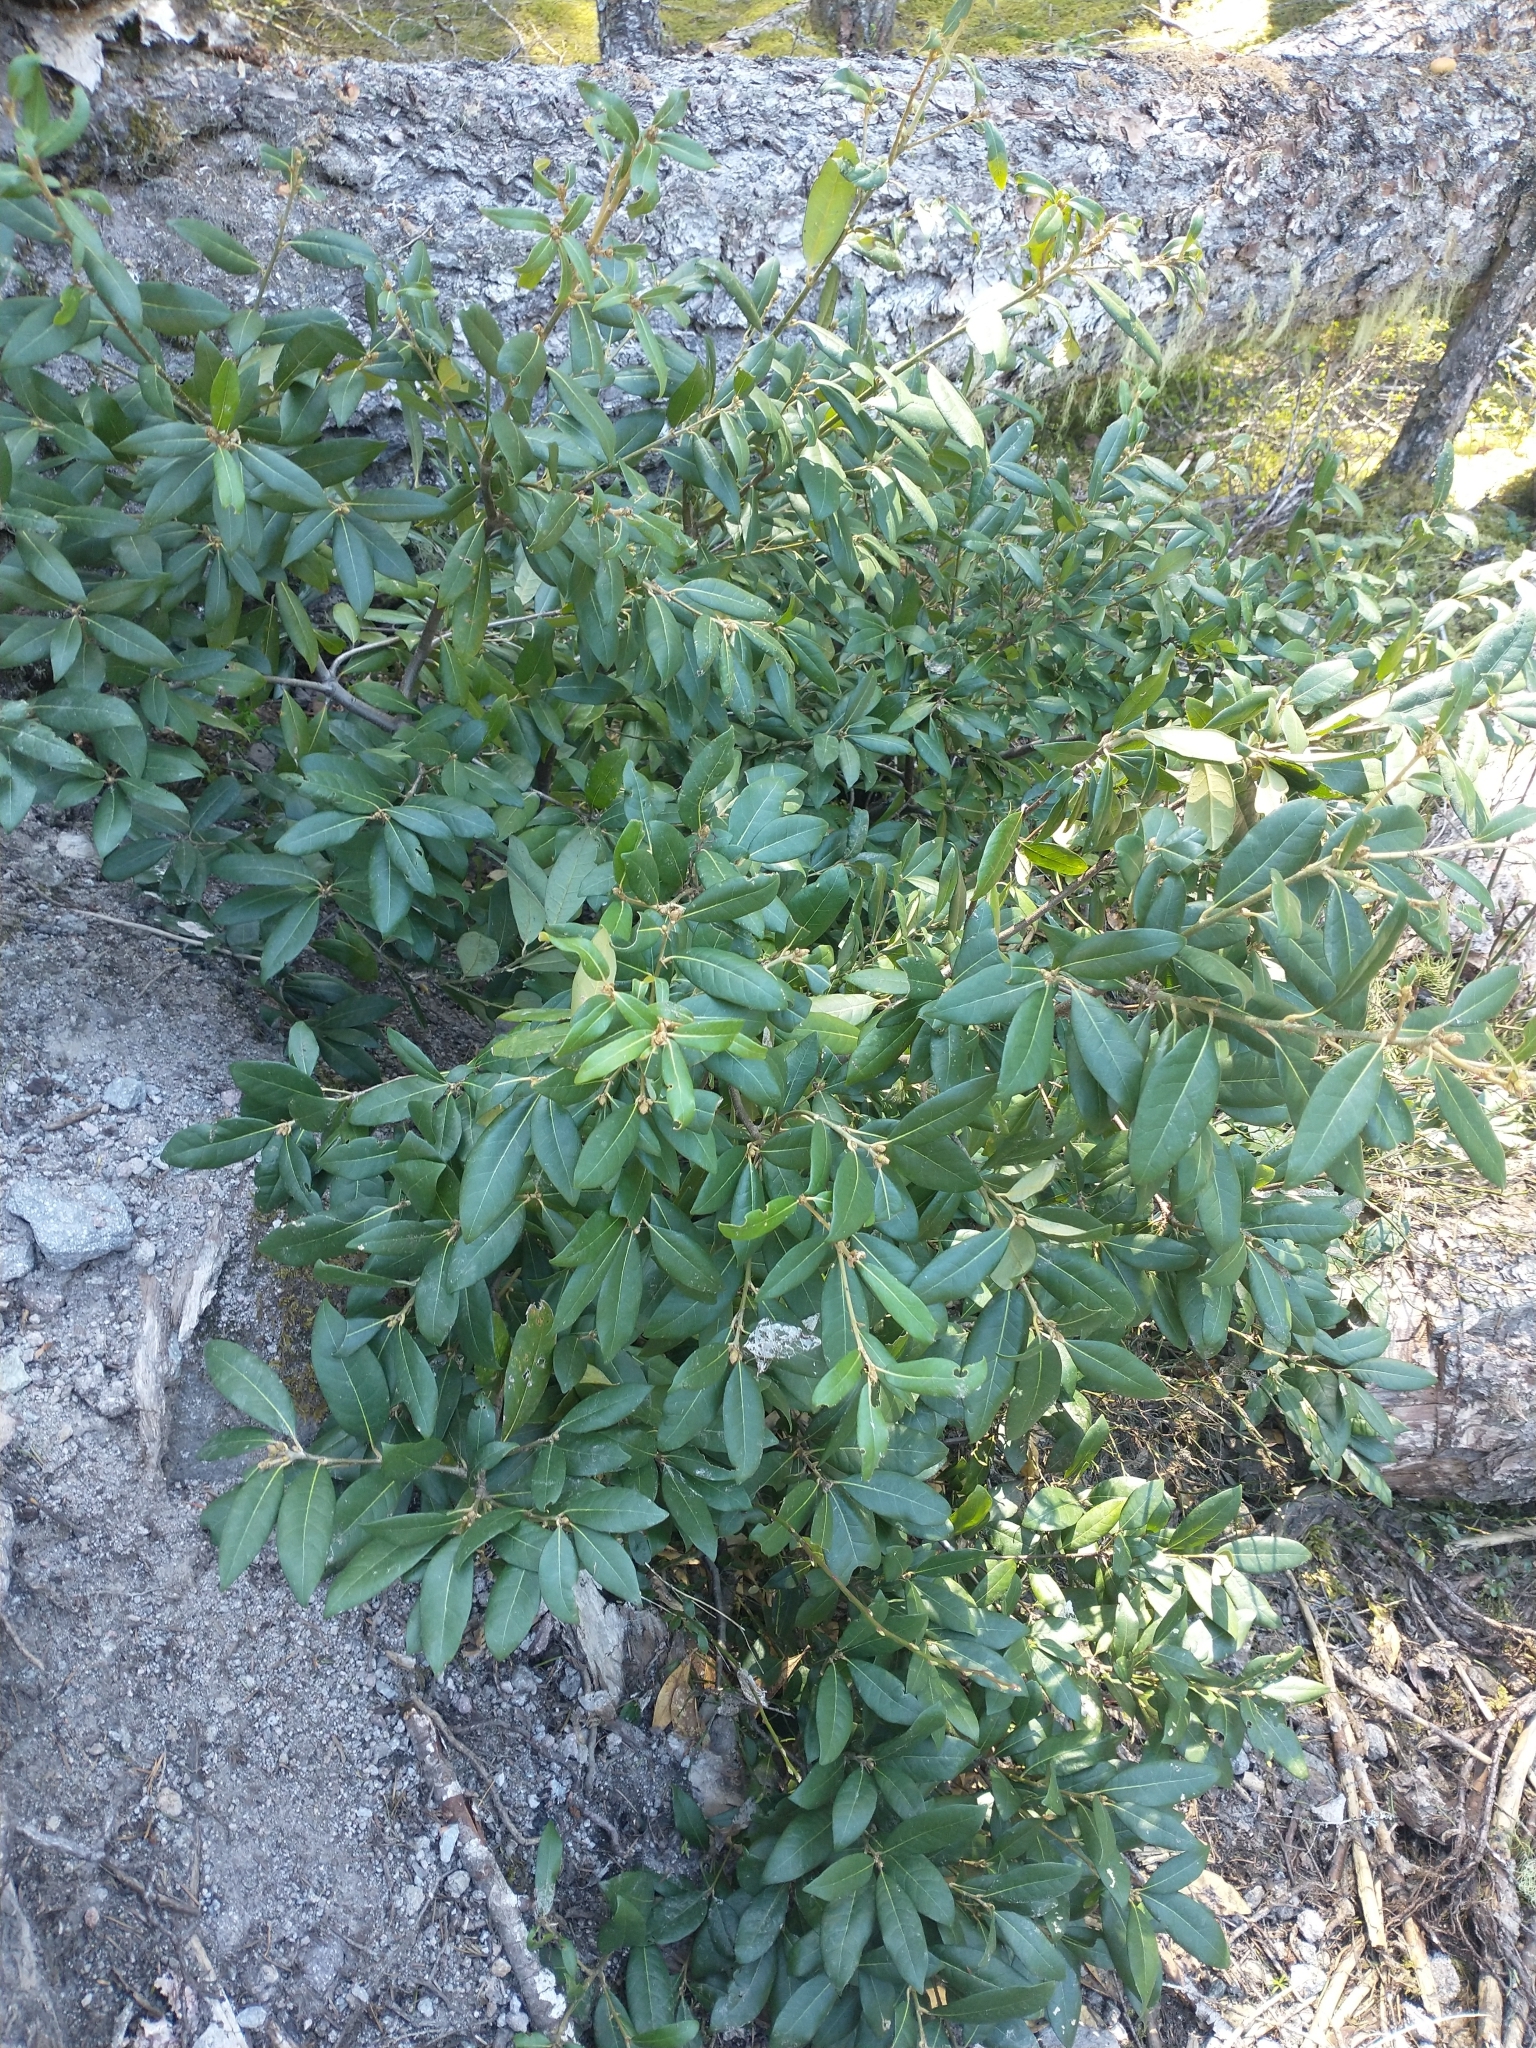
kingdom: Plantae
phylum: Tracheophyta
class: Magnoliopsida
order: Fagales
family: Fagaceae
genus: Chrysolepis
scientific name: Chrysolepis chrysophylla
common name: Giant chinquapin
